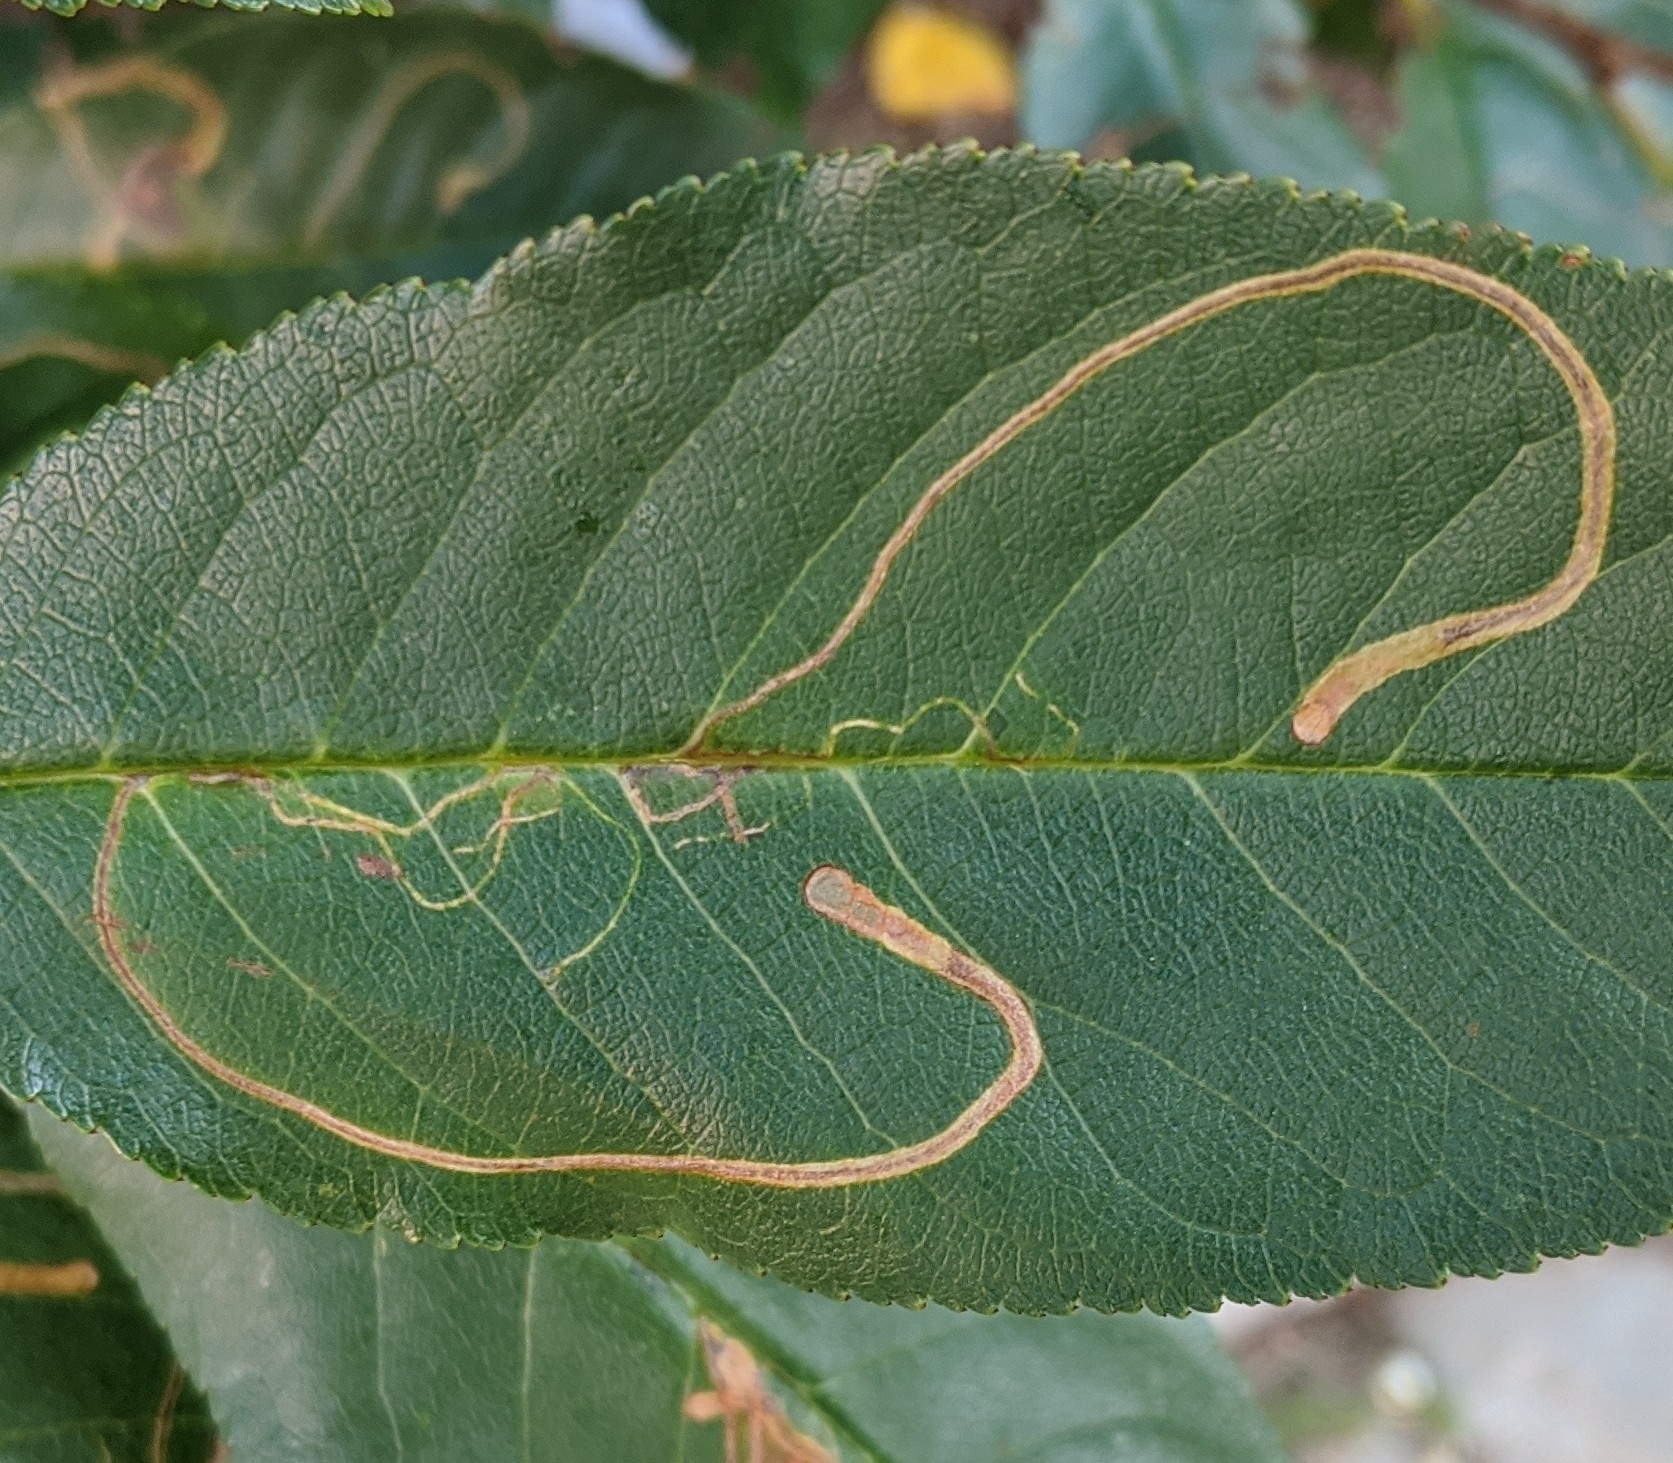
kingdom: Animalia
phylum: Arthropoda
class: Insecta
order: Lepidoptera
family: Lyonetiidae
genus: Lyonetia
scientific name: Lyonetia clerkella
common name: Apple leaf miner
